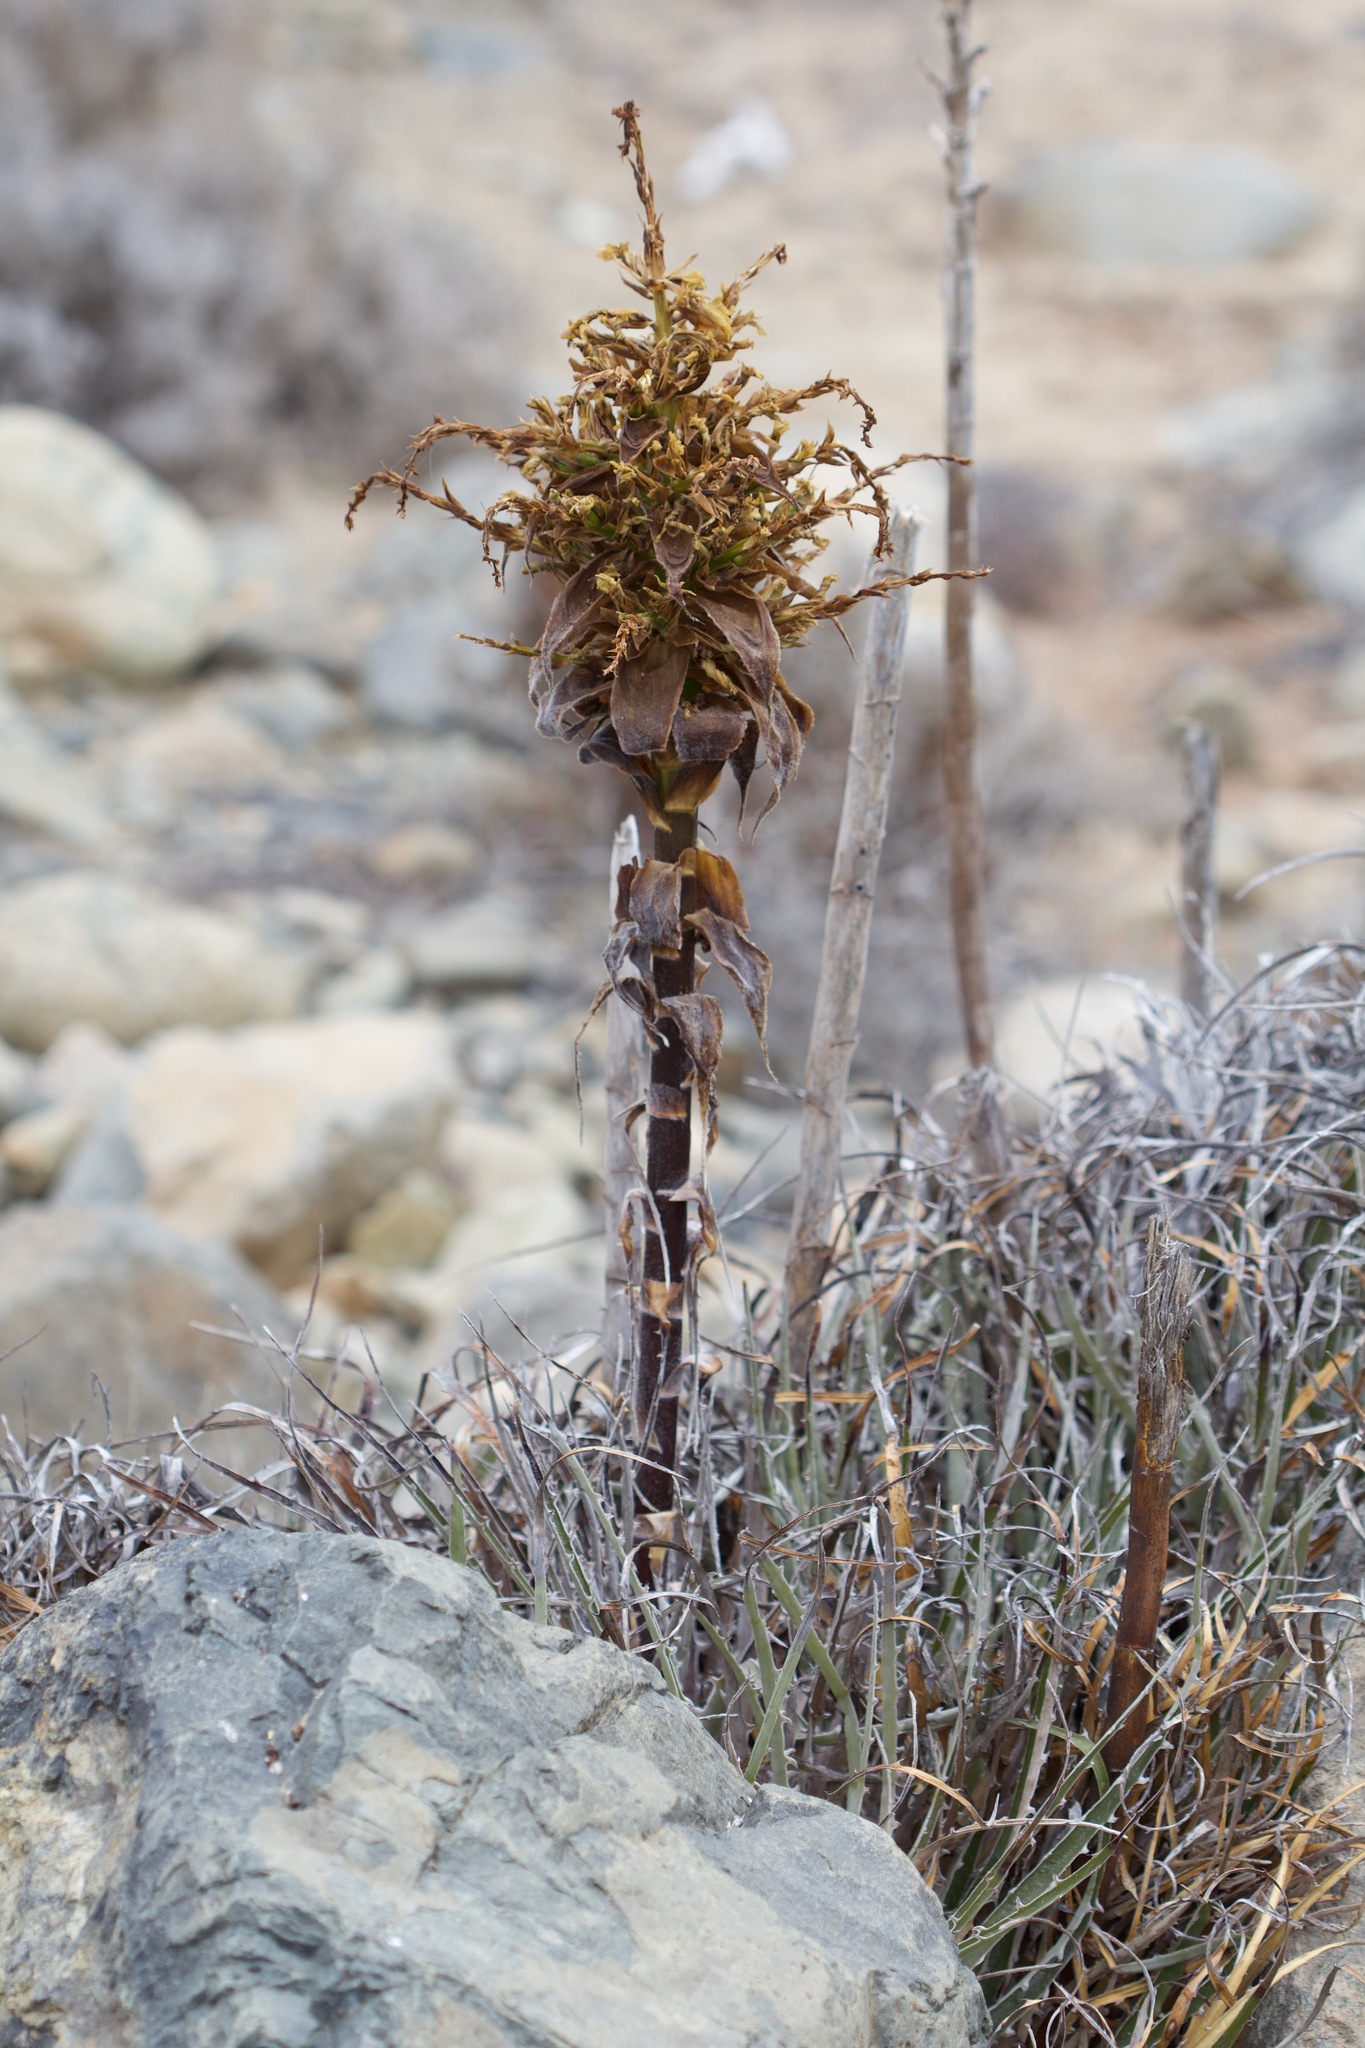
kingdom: Plantae
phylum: Tracheophyta
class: Liliopsida
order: Poales
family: Bromeliaceae
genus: Puya
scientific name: Puya gilmartiniae
